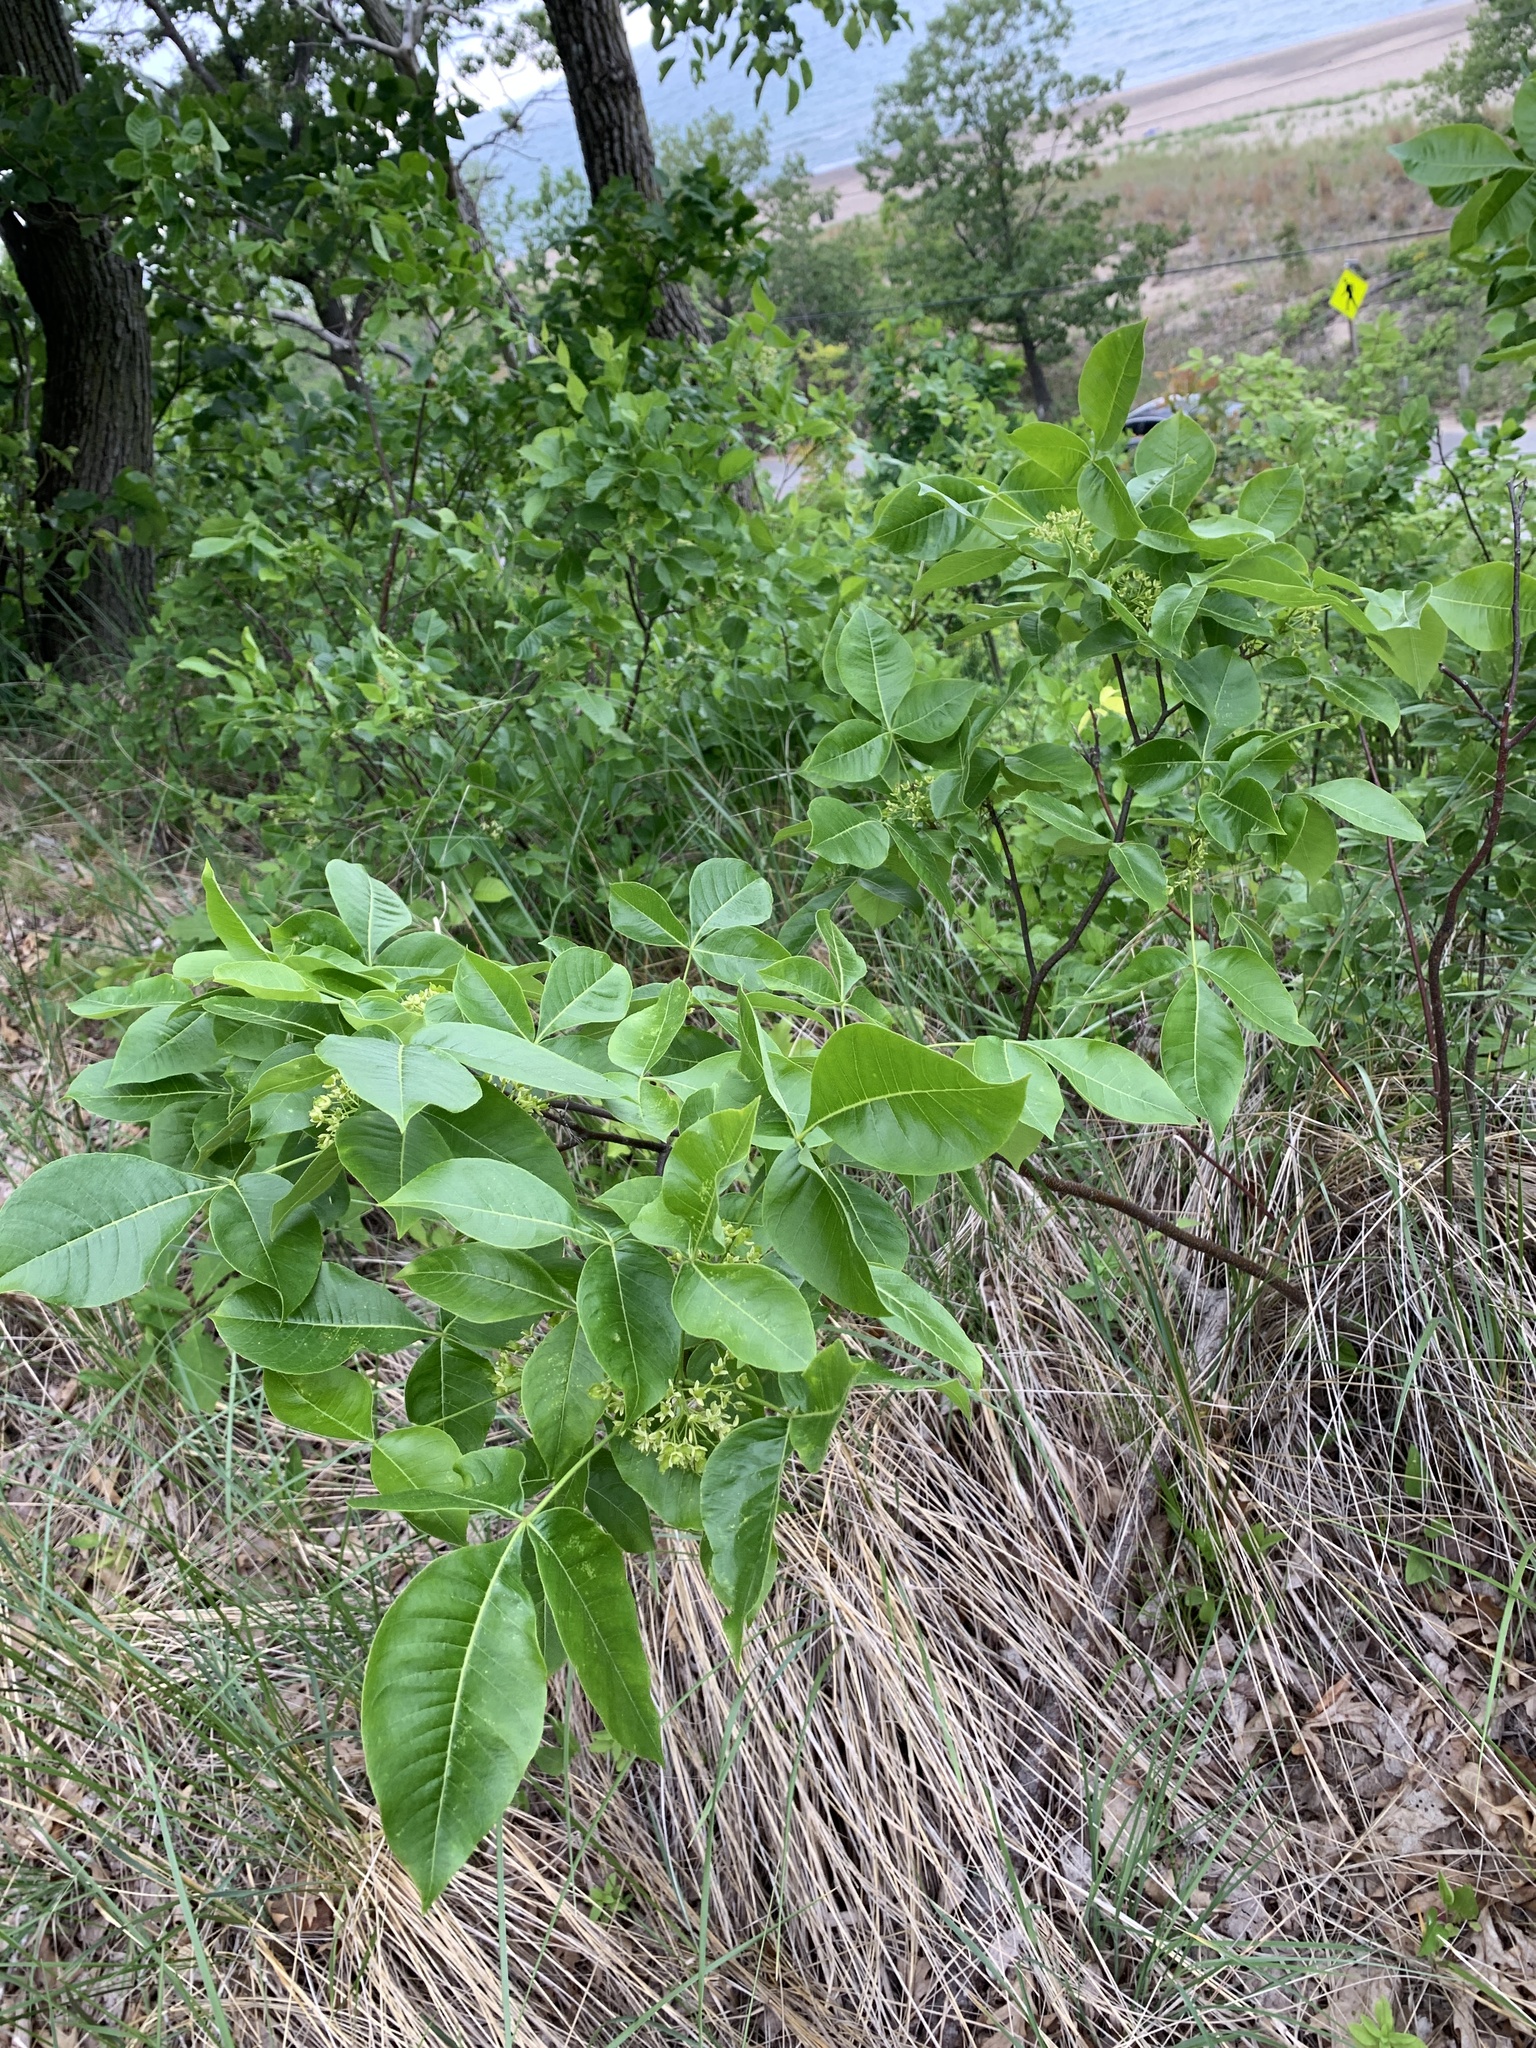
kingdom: Plantae
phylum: Tracheophyta
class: Magnoliopsida
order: Sapindales
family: Rutaceae
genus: Ptelea
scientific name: Ptelea trifoliata
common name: Common hop-tree
